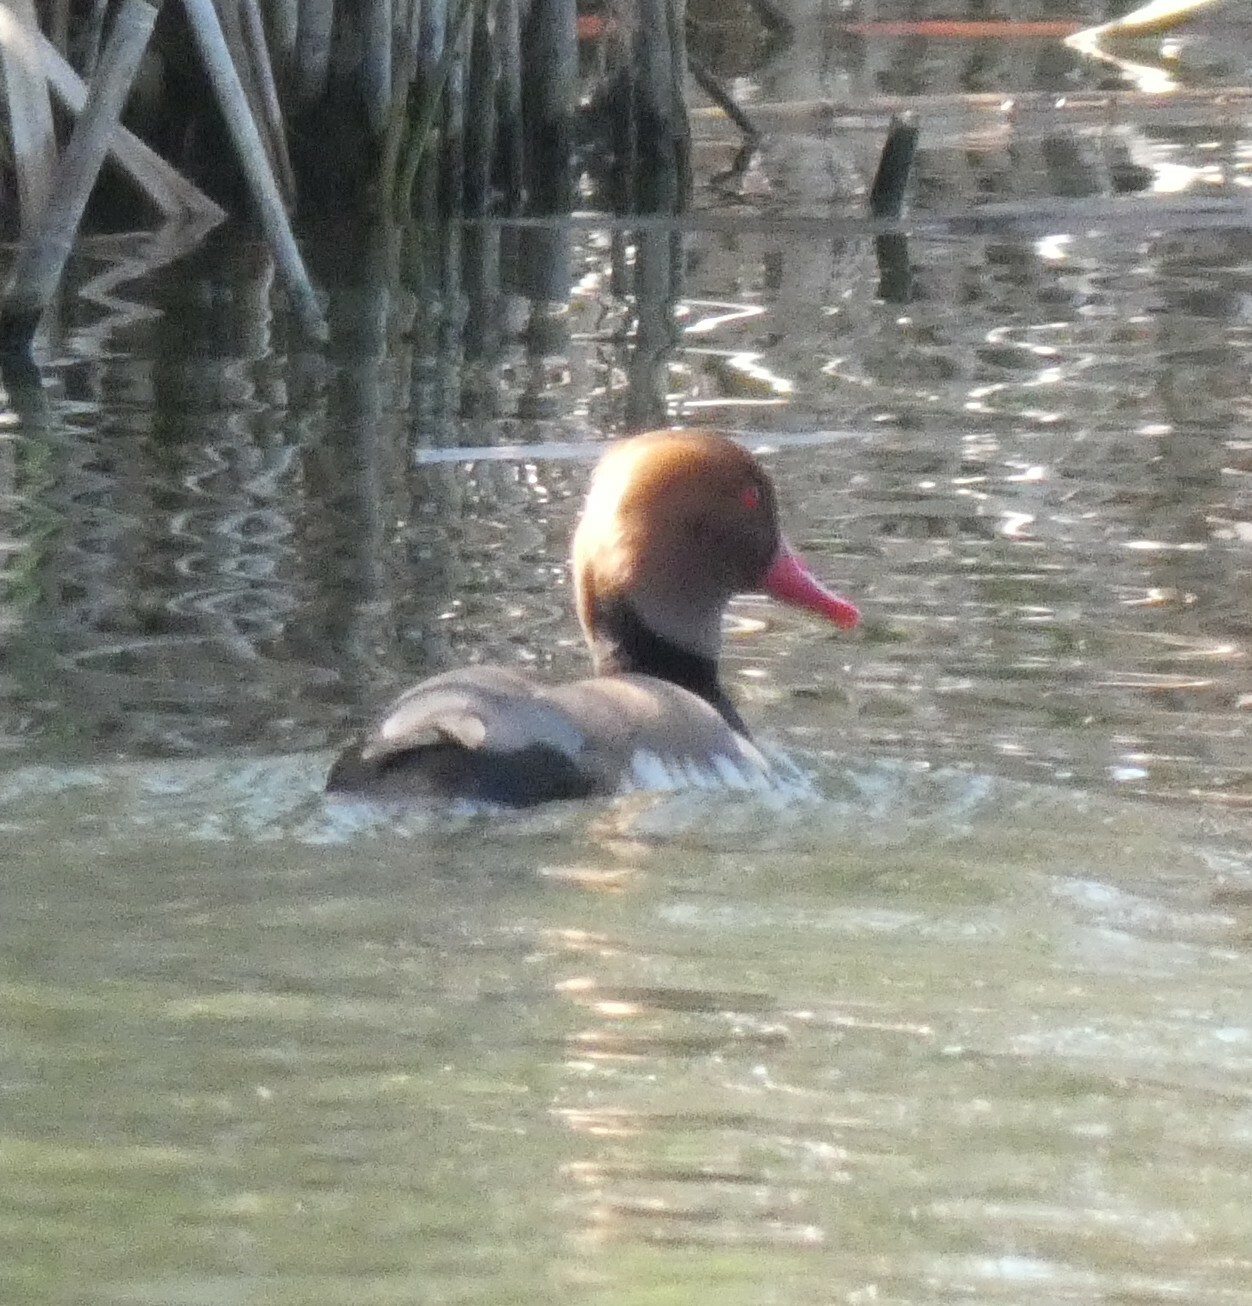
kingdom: Animalia
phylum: Chordata
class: Aves
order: Anseriformes
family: Anatidae
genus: Netta
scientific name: Netta rufina
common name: Red-crested pochard
